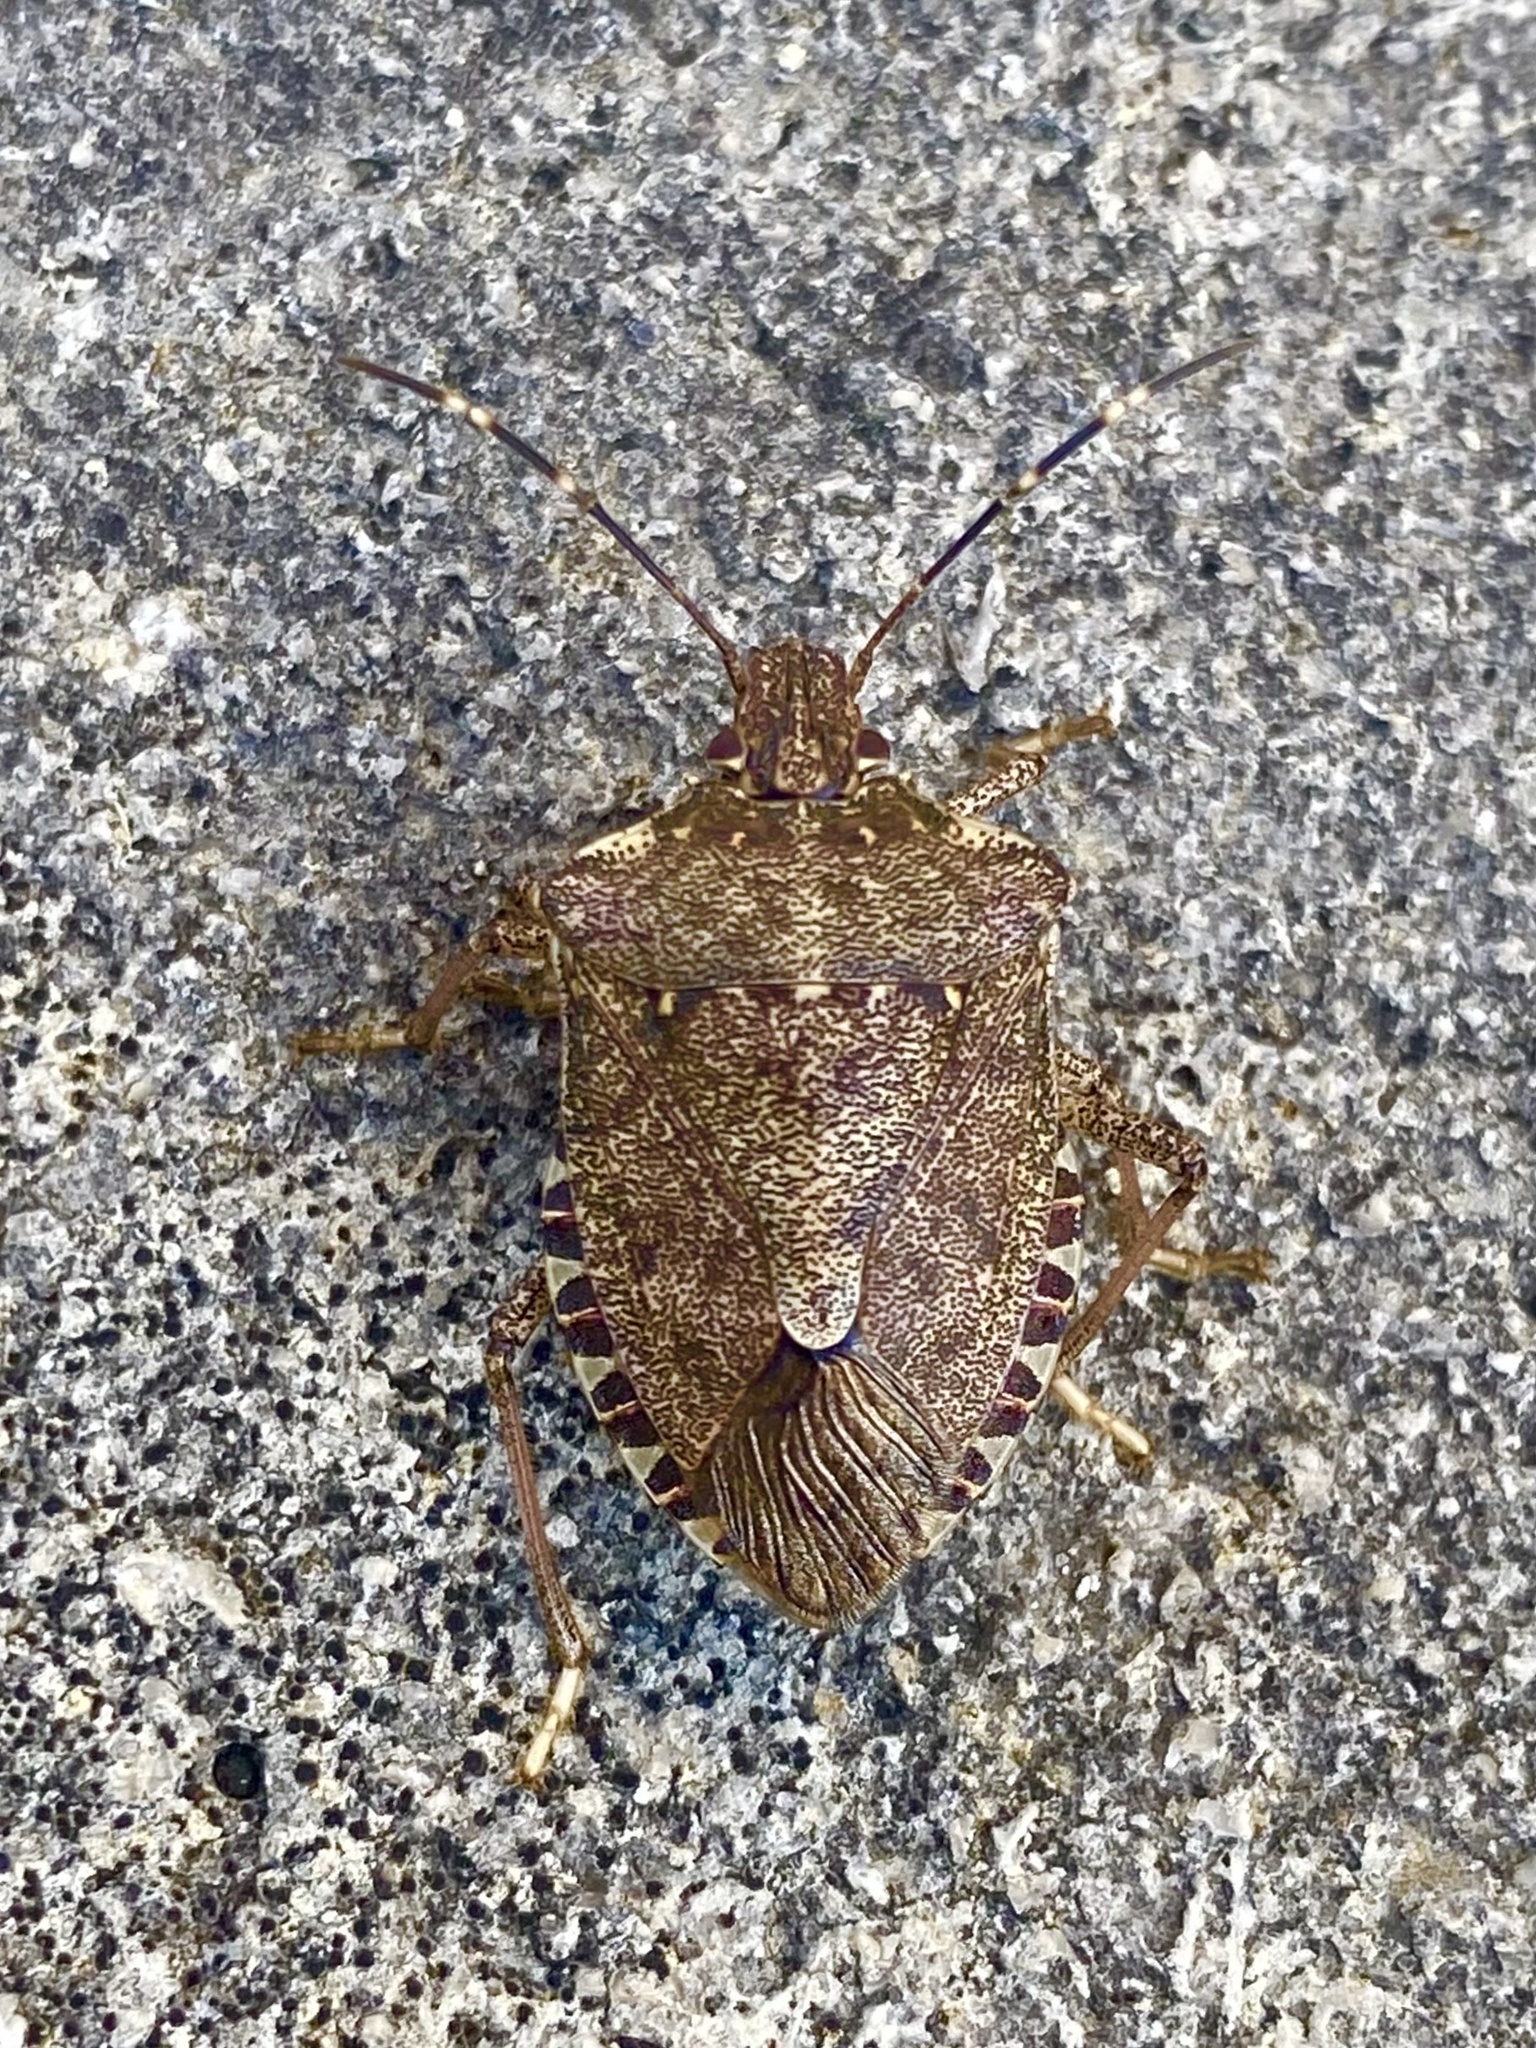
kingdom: Animalia
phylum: Arthropoda
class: Insecta
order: Hemiptera
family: Pentatomidae
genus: Halyomorpha
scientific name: Halyomorpha halys
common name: Brown marmorated stink bug
